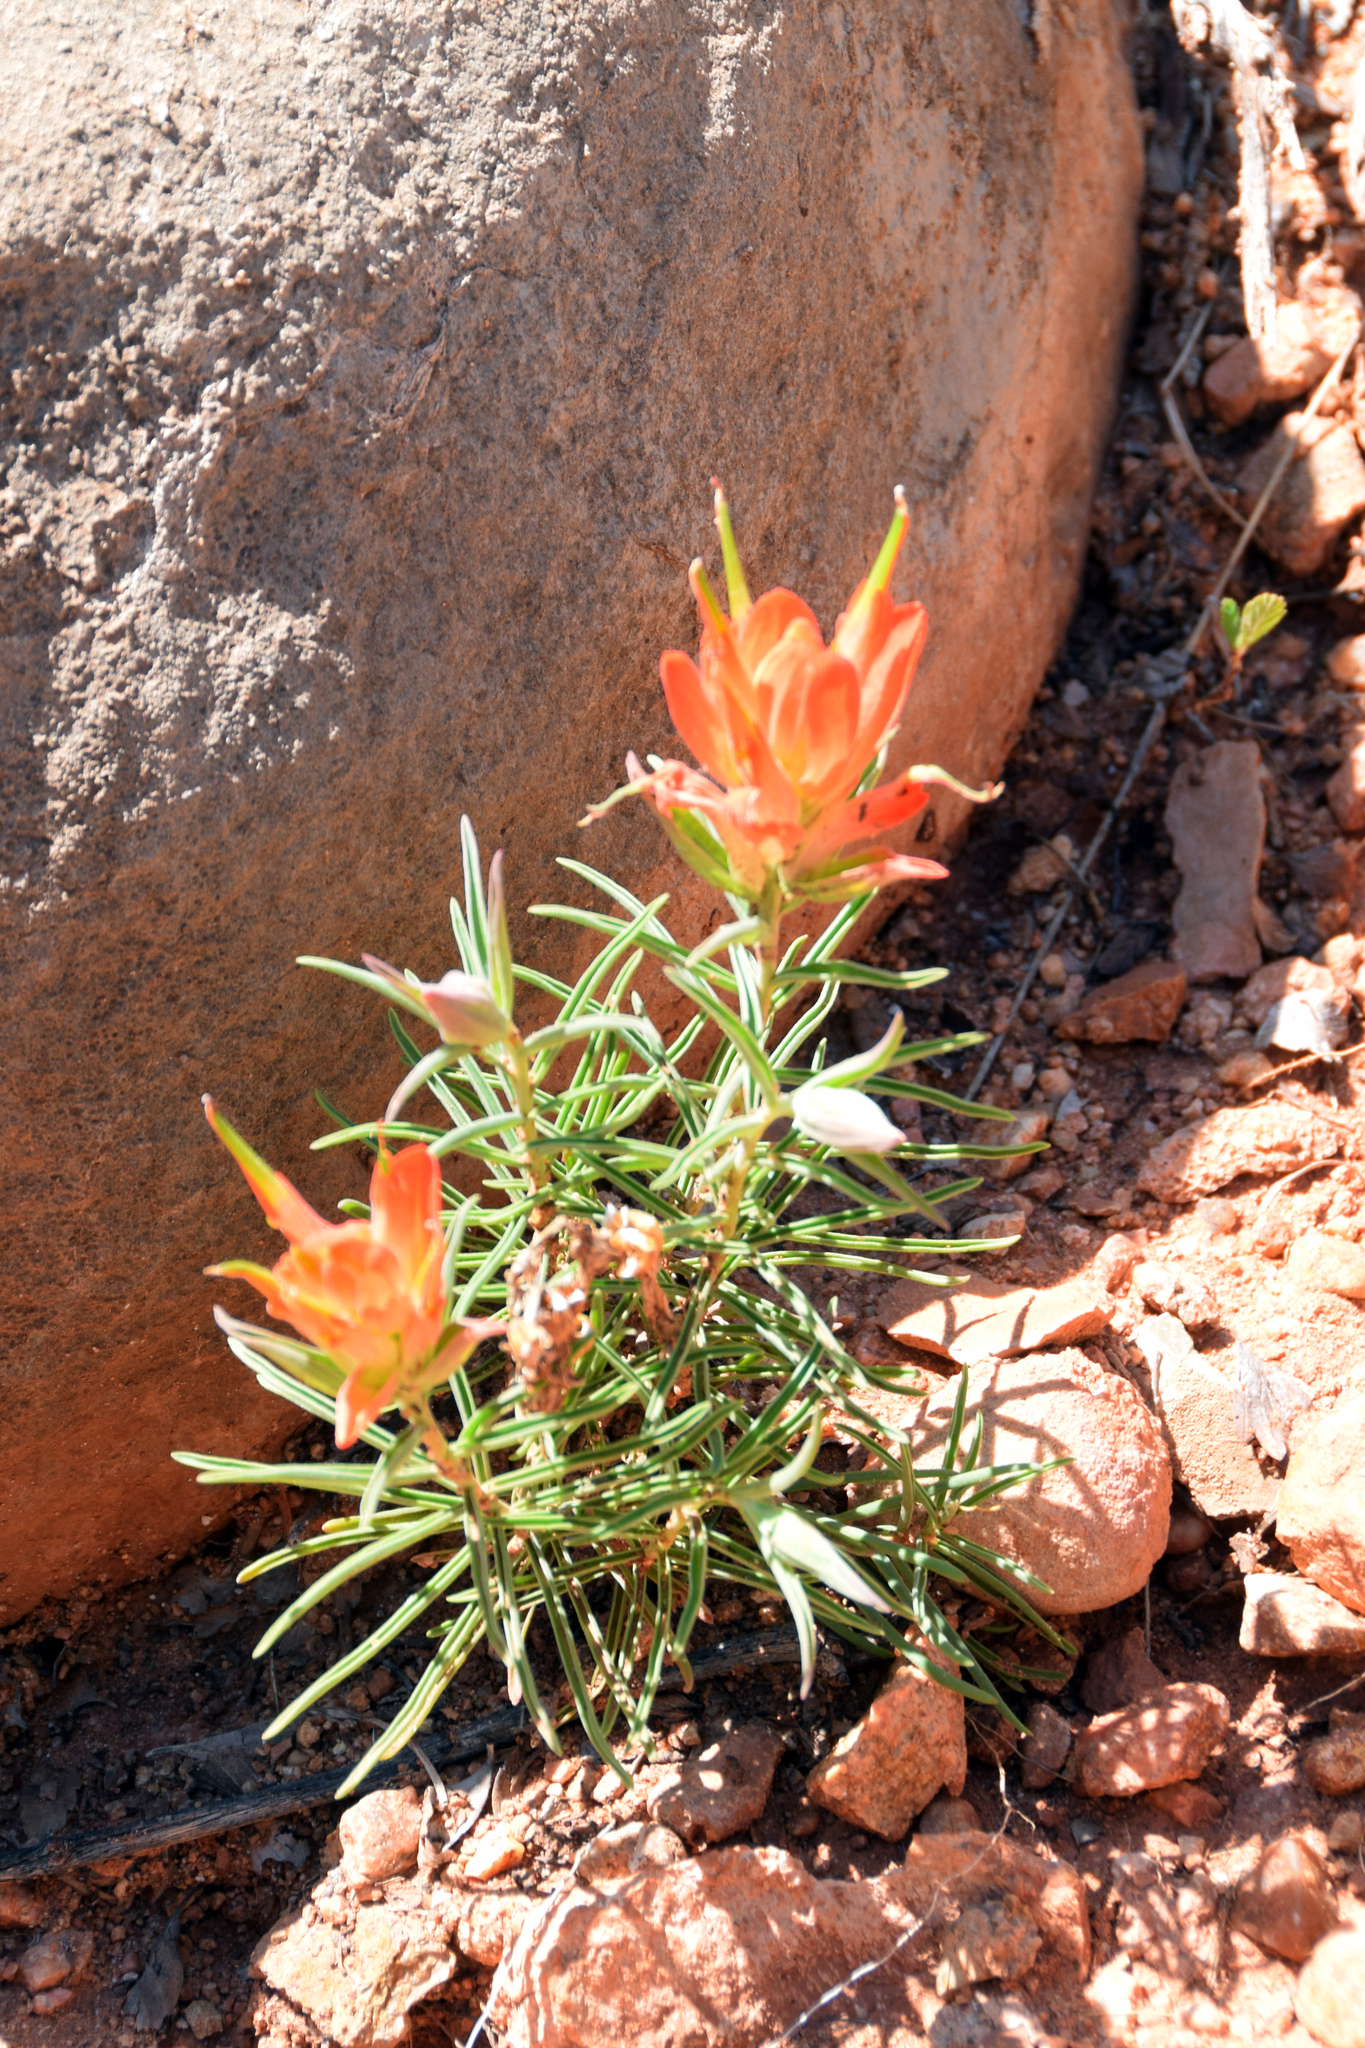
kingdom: Plantae
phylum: Tracheophyta
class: Magnoliopsida
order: Lamiales
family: Orobanchaceae
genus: Castilleja
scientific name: Castilleja integra
